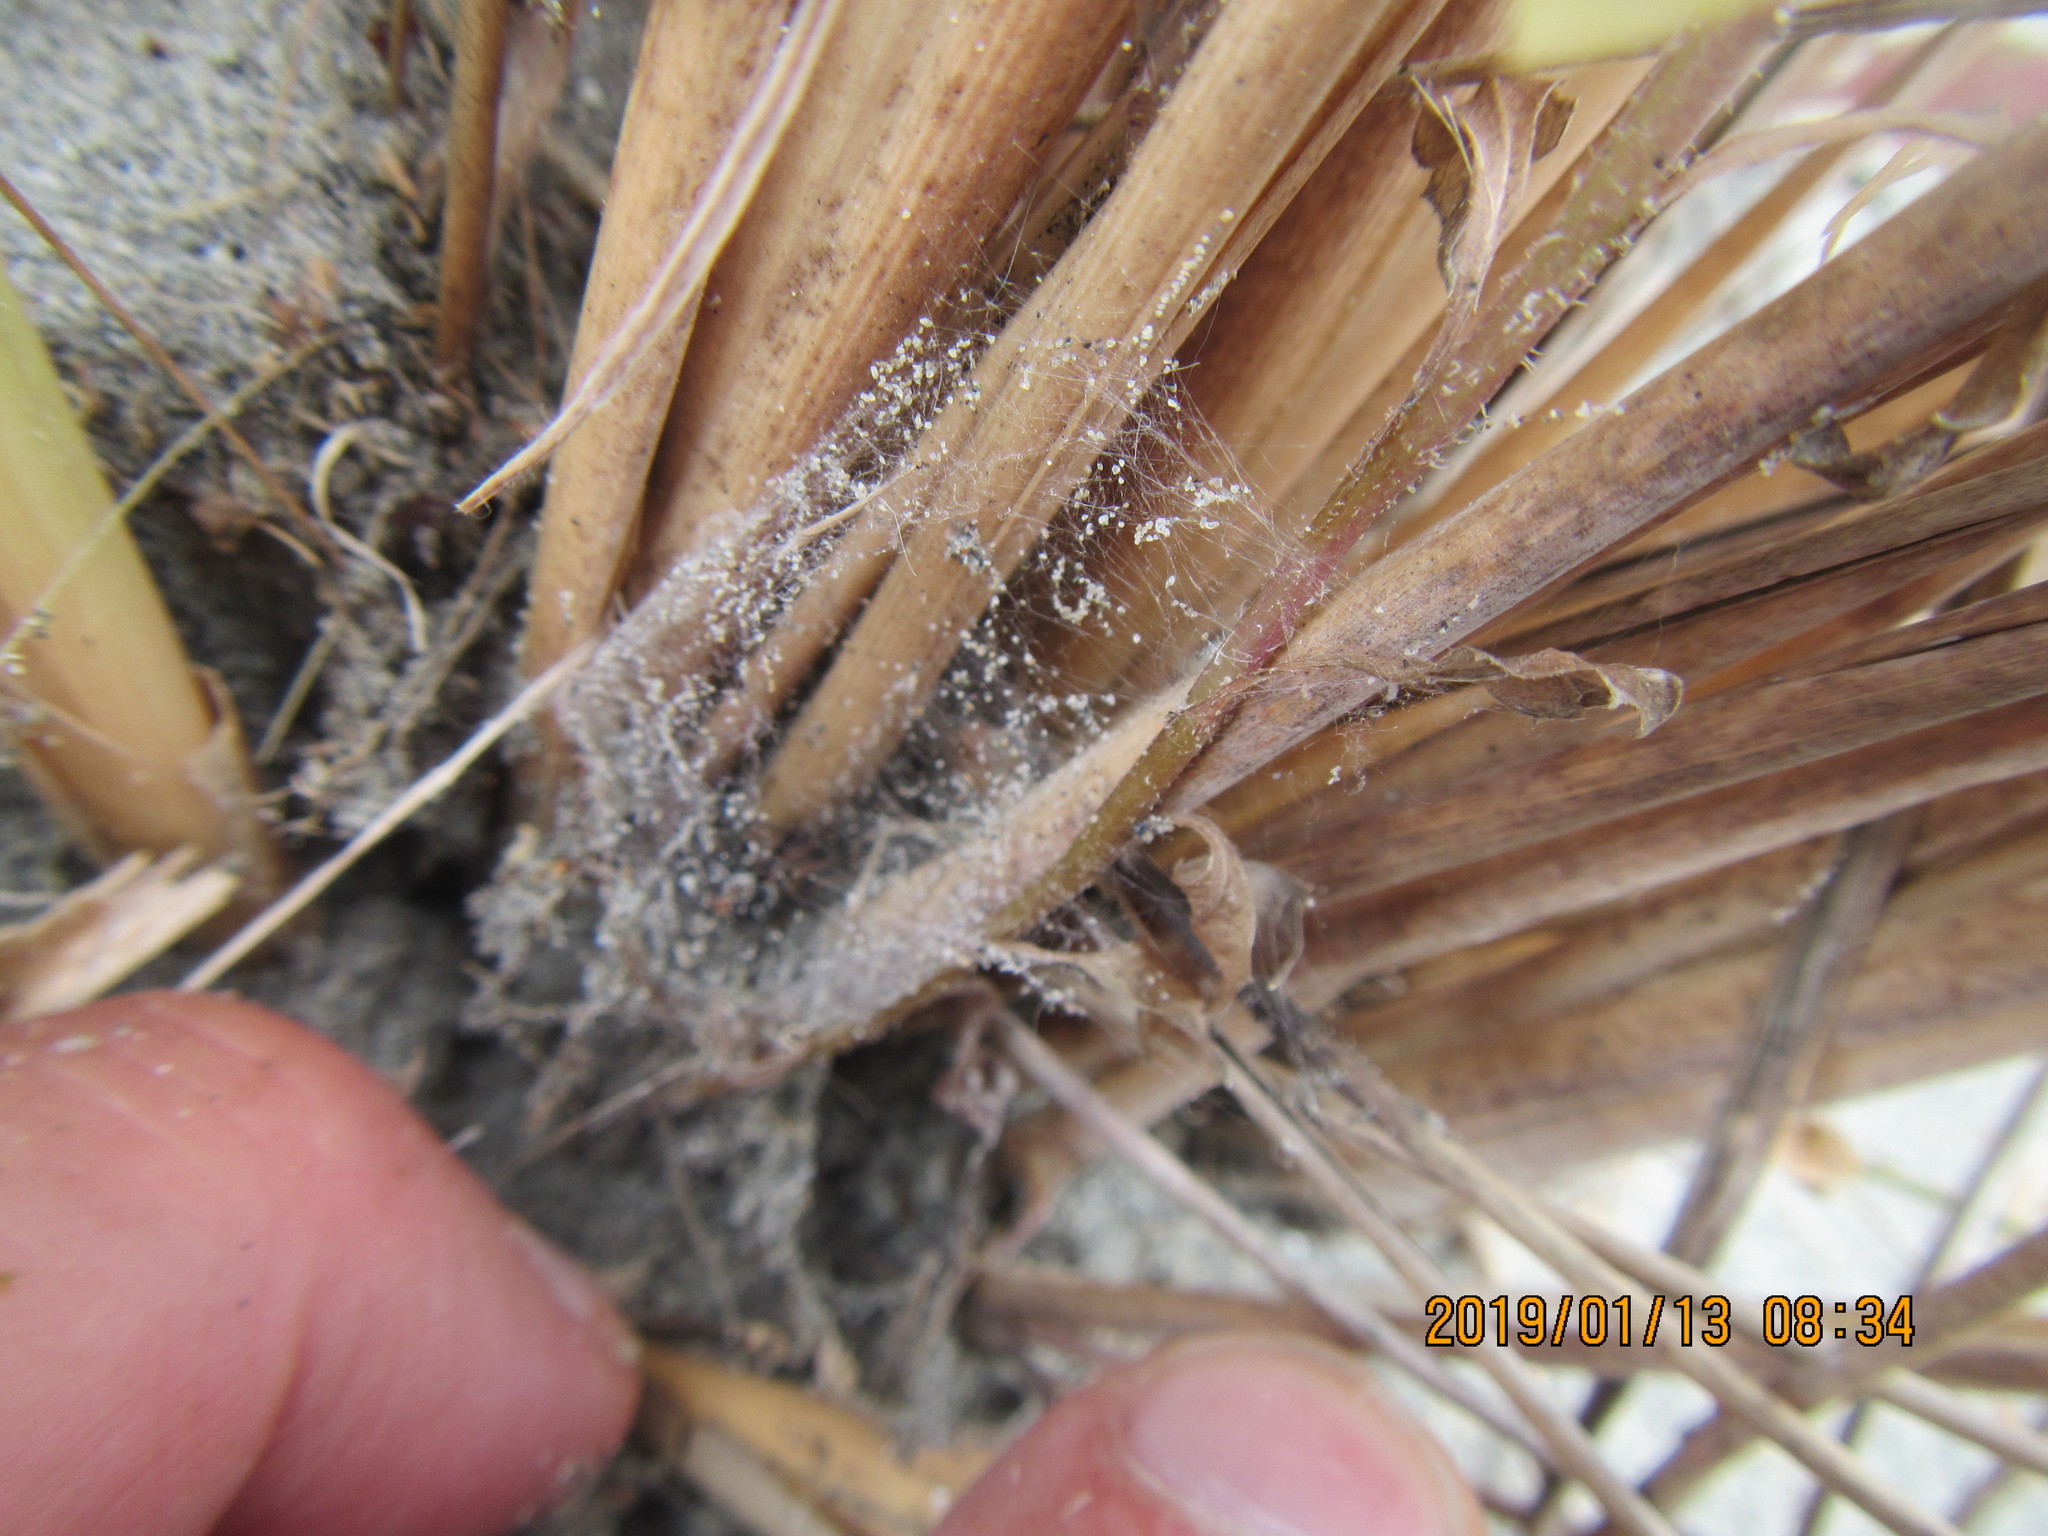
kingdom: Animalia
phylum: Arthropoda
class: Arachnida
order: Araneae
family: Theridiidae
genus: Latrodectus
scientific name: Latrodectus katipo
